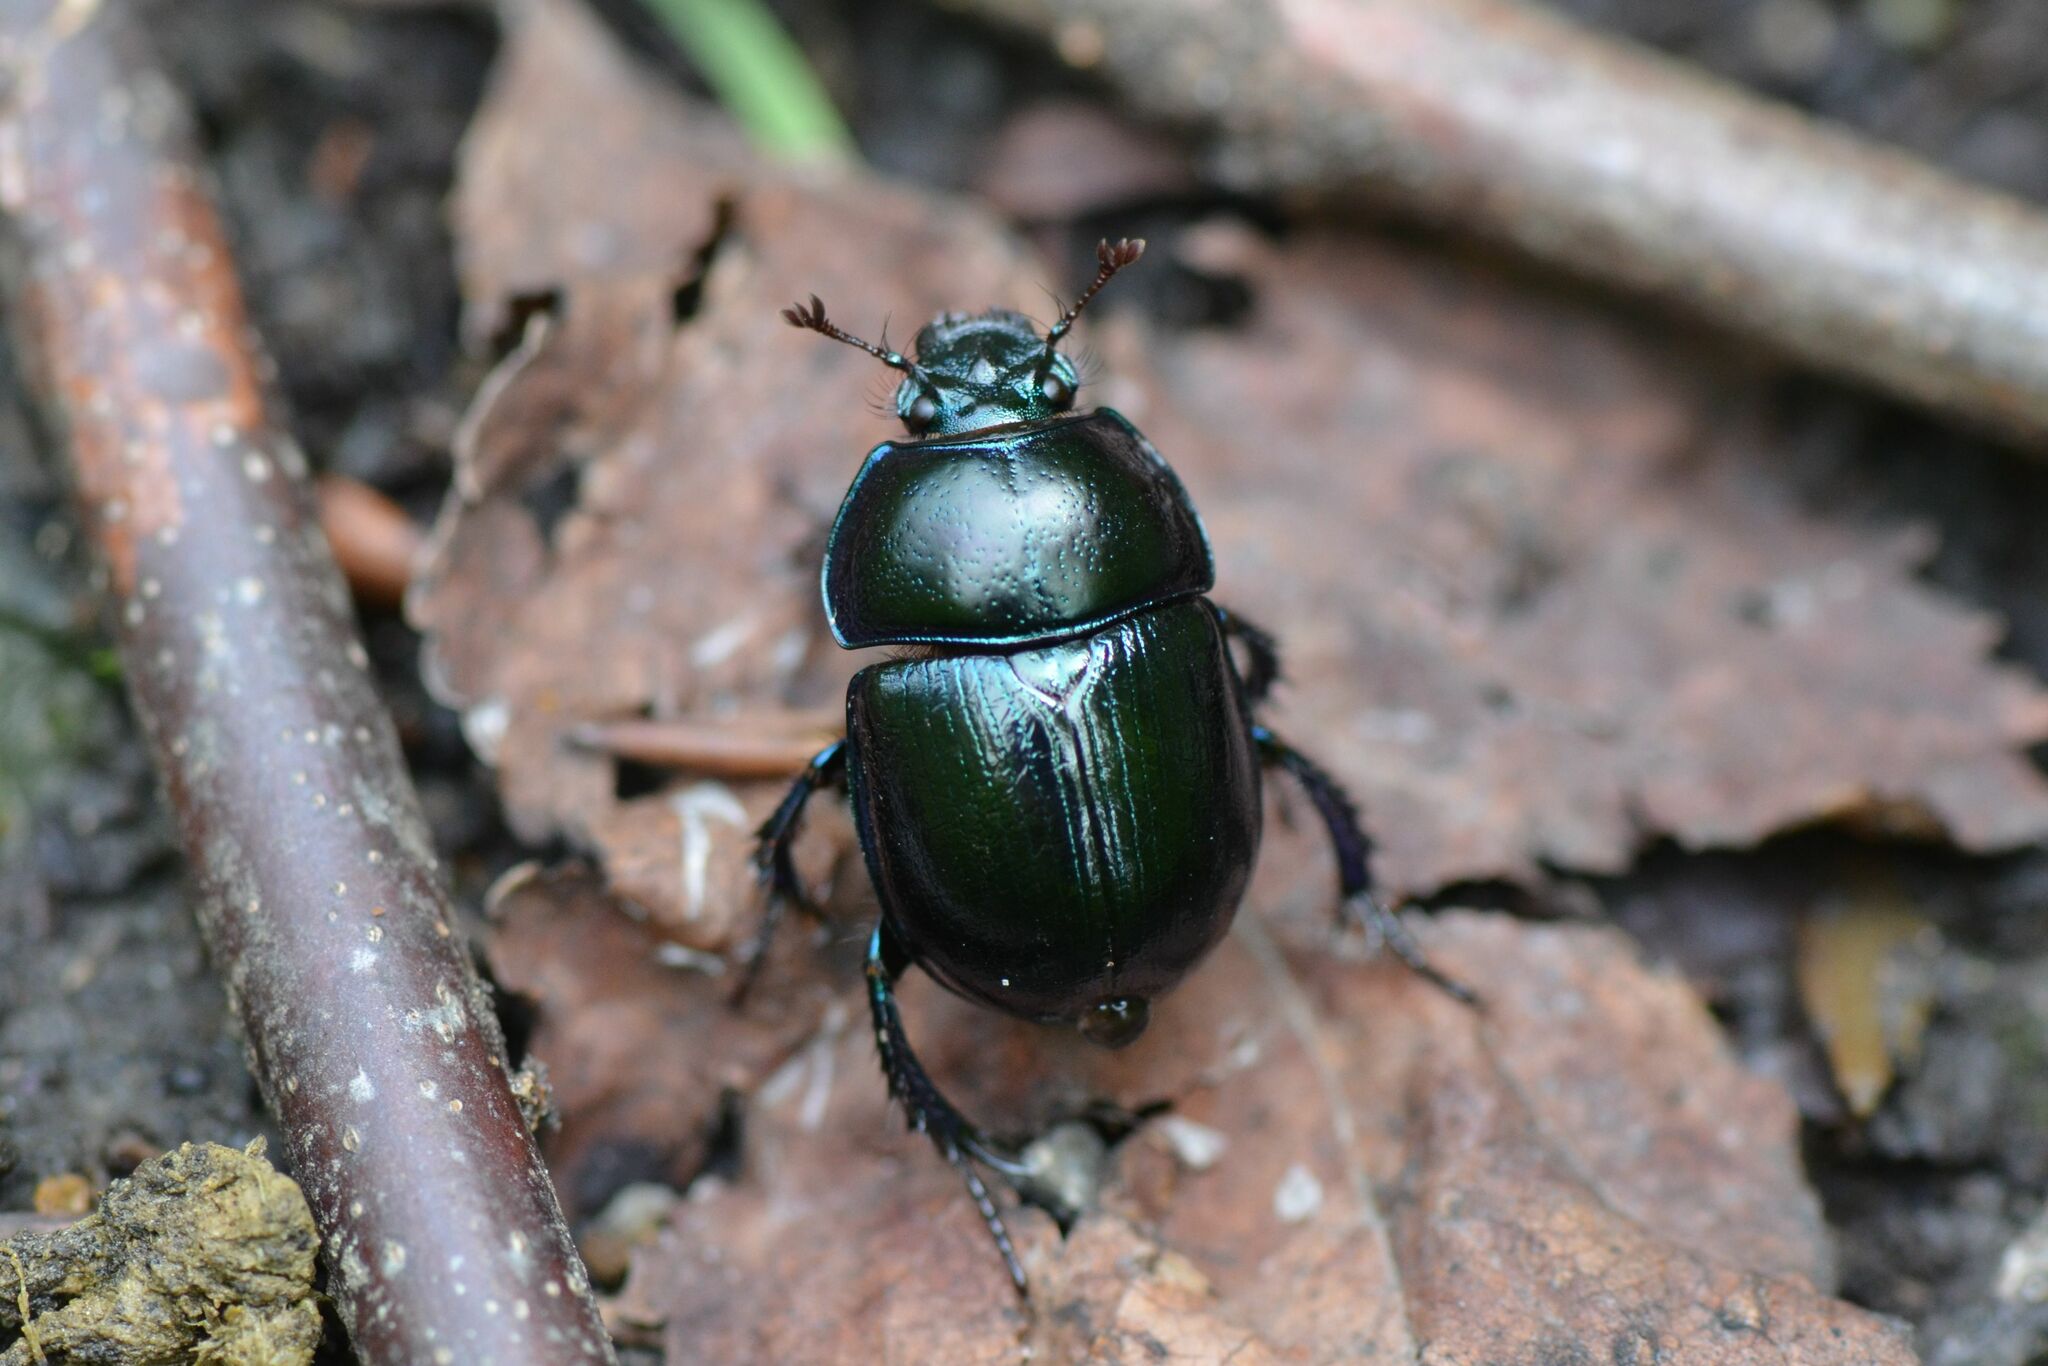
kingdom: Animalia
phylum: Arthropoda
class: Insecta
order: Coleoptera
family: Geotrupidae
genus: Anoplotrupes
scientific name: Anoplotrupes stercorosus
